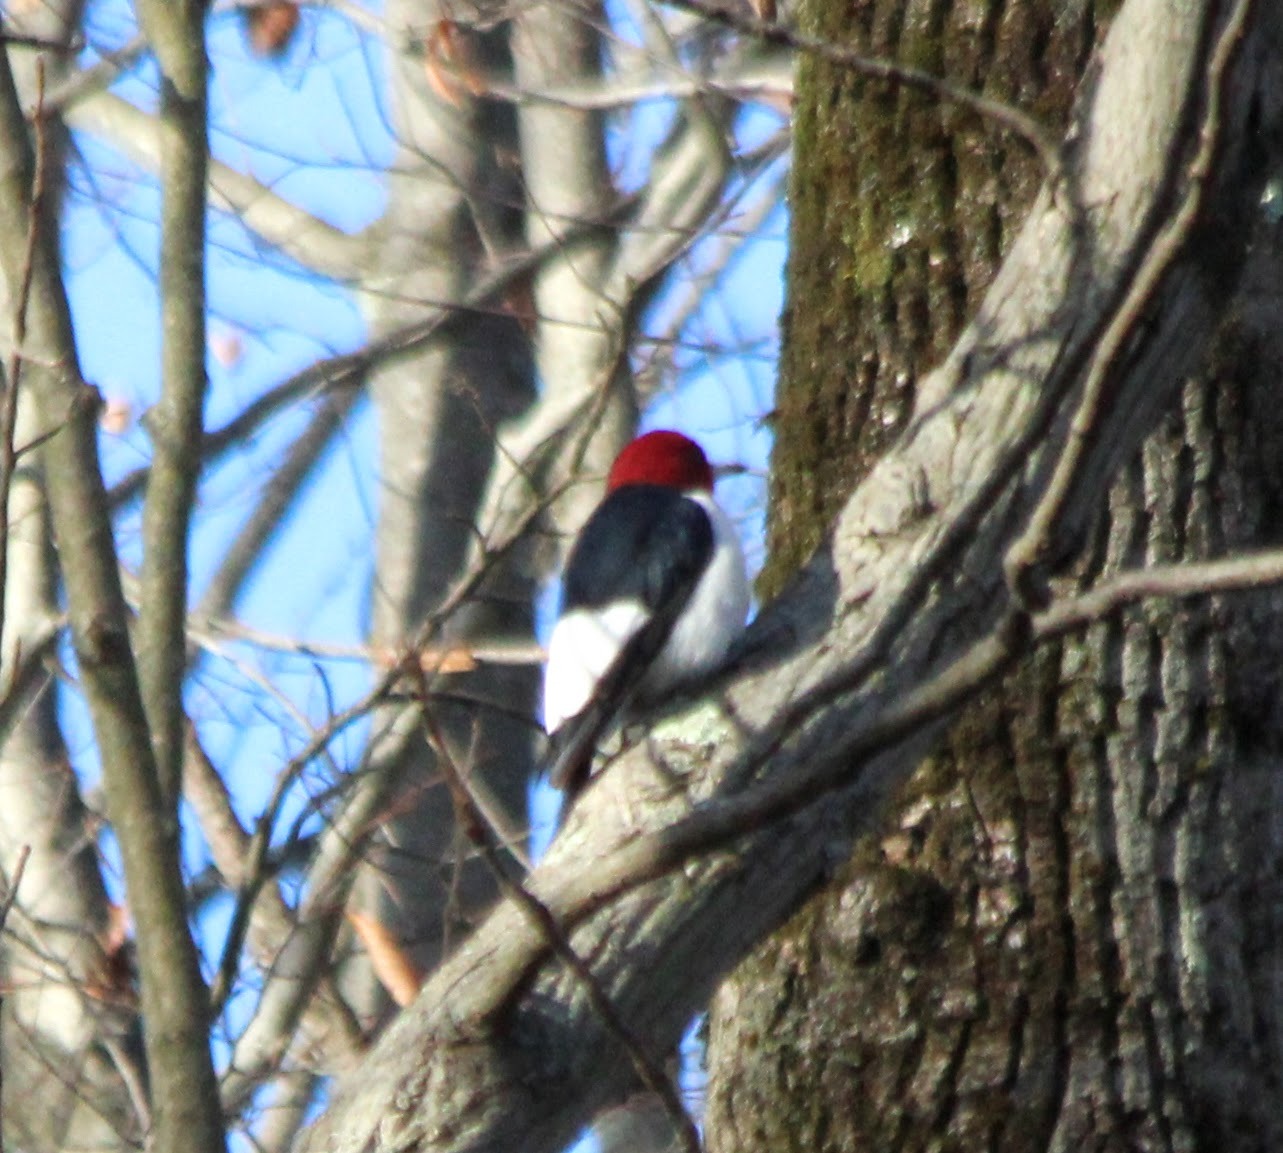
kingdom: Animalia
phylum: Chordata
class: Aves
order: Piciformes
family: Picidae
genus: Melanerpes
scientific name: Melanerpes erythrocephalus
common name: Red-headed woodpecker
